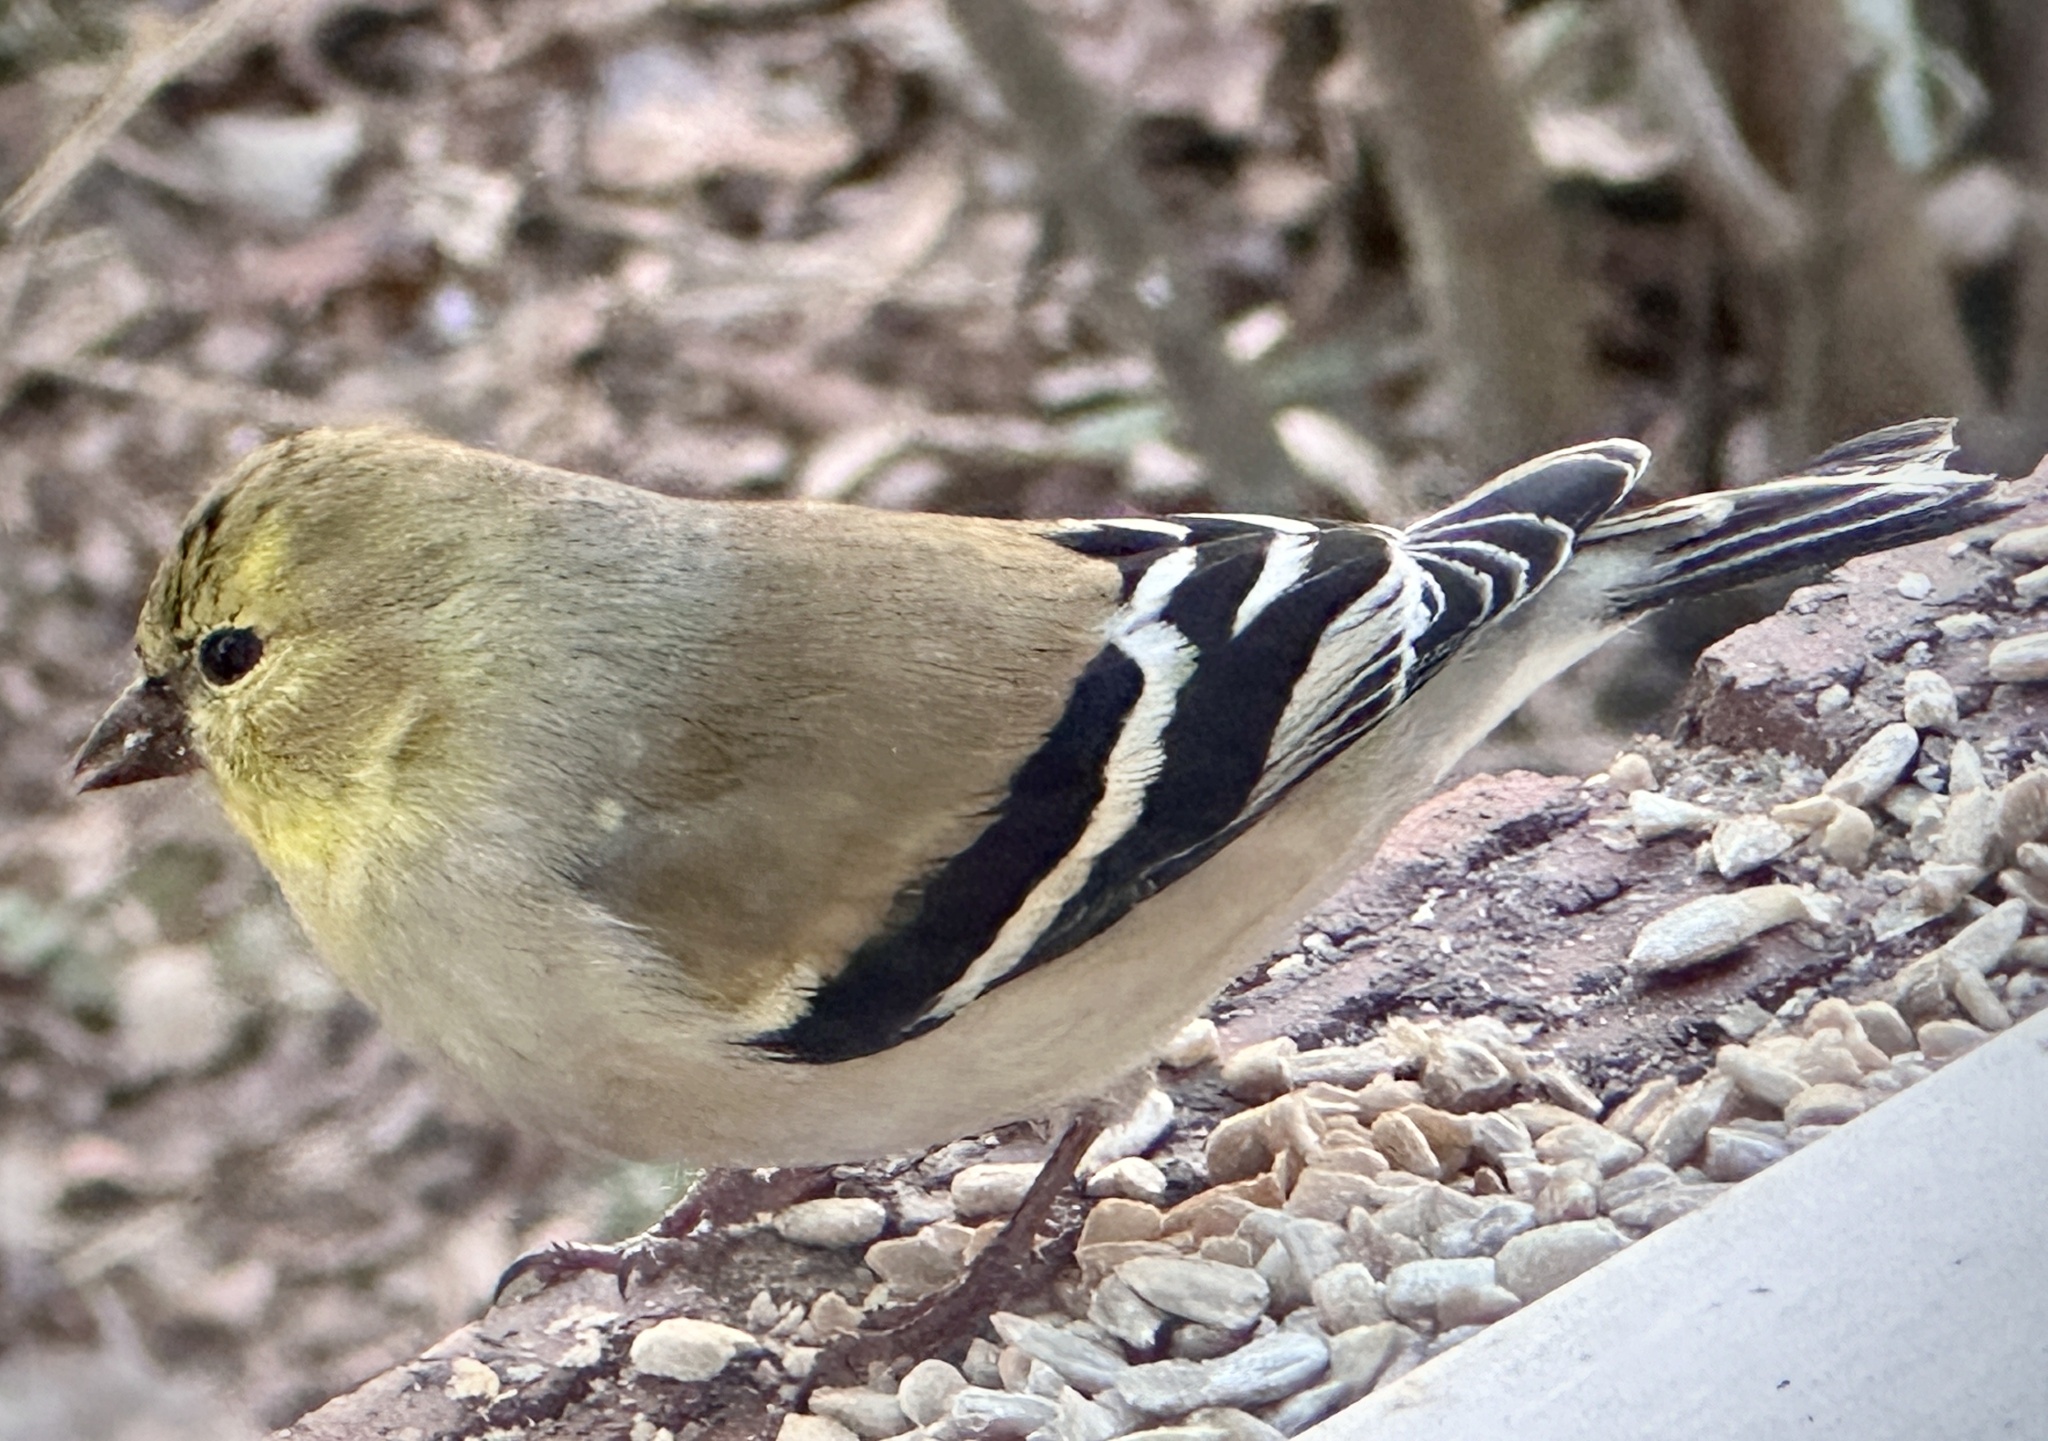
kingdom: Animalia
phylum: Chordata
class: Aves
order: Passeriformes
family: Fringillidae
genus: Spinus
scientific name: Spinus tristis
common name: American goldfinch
